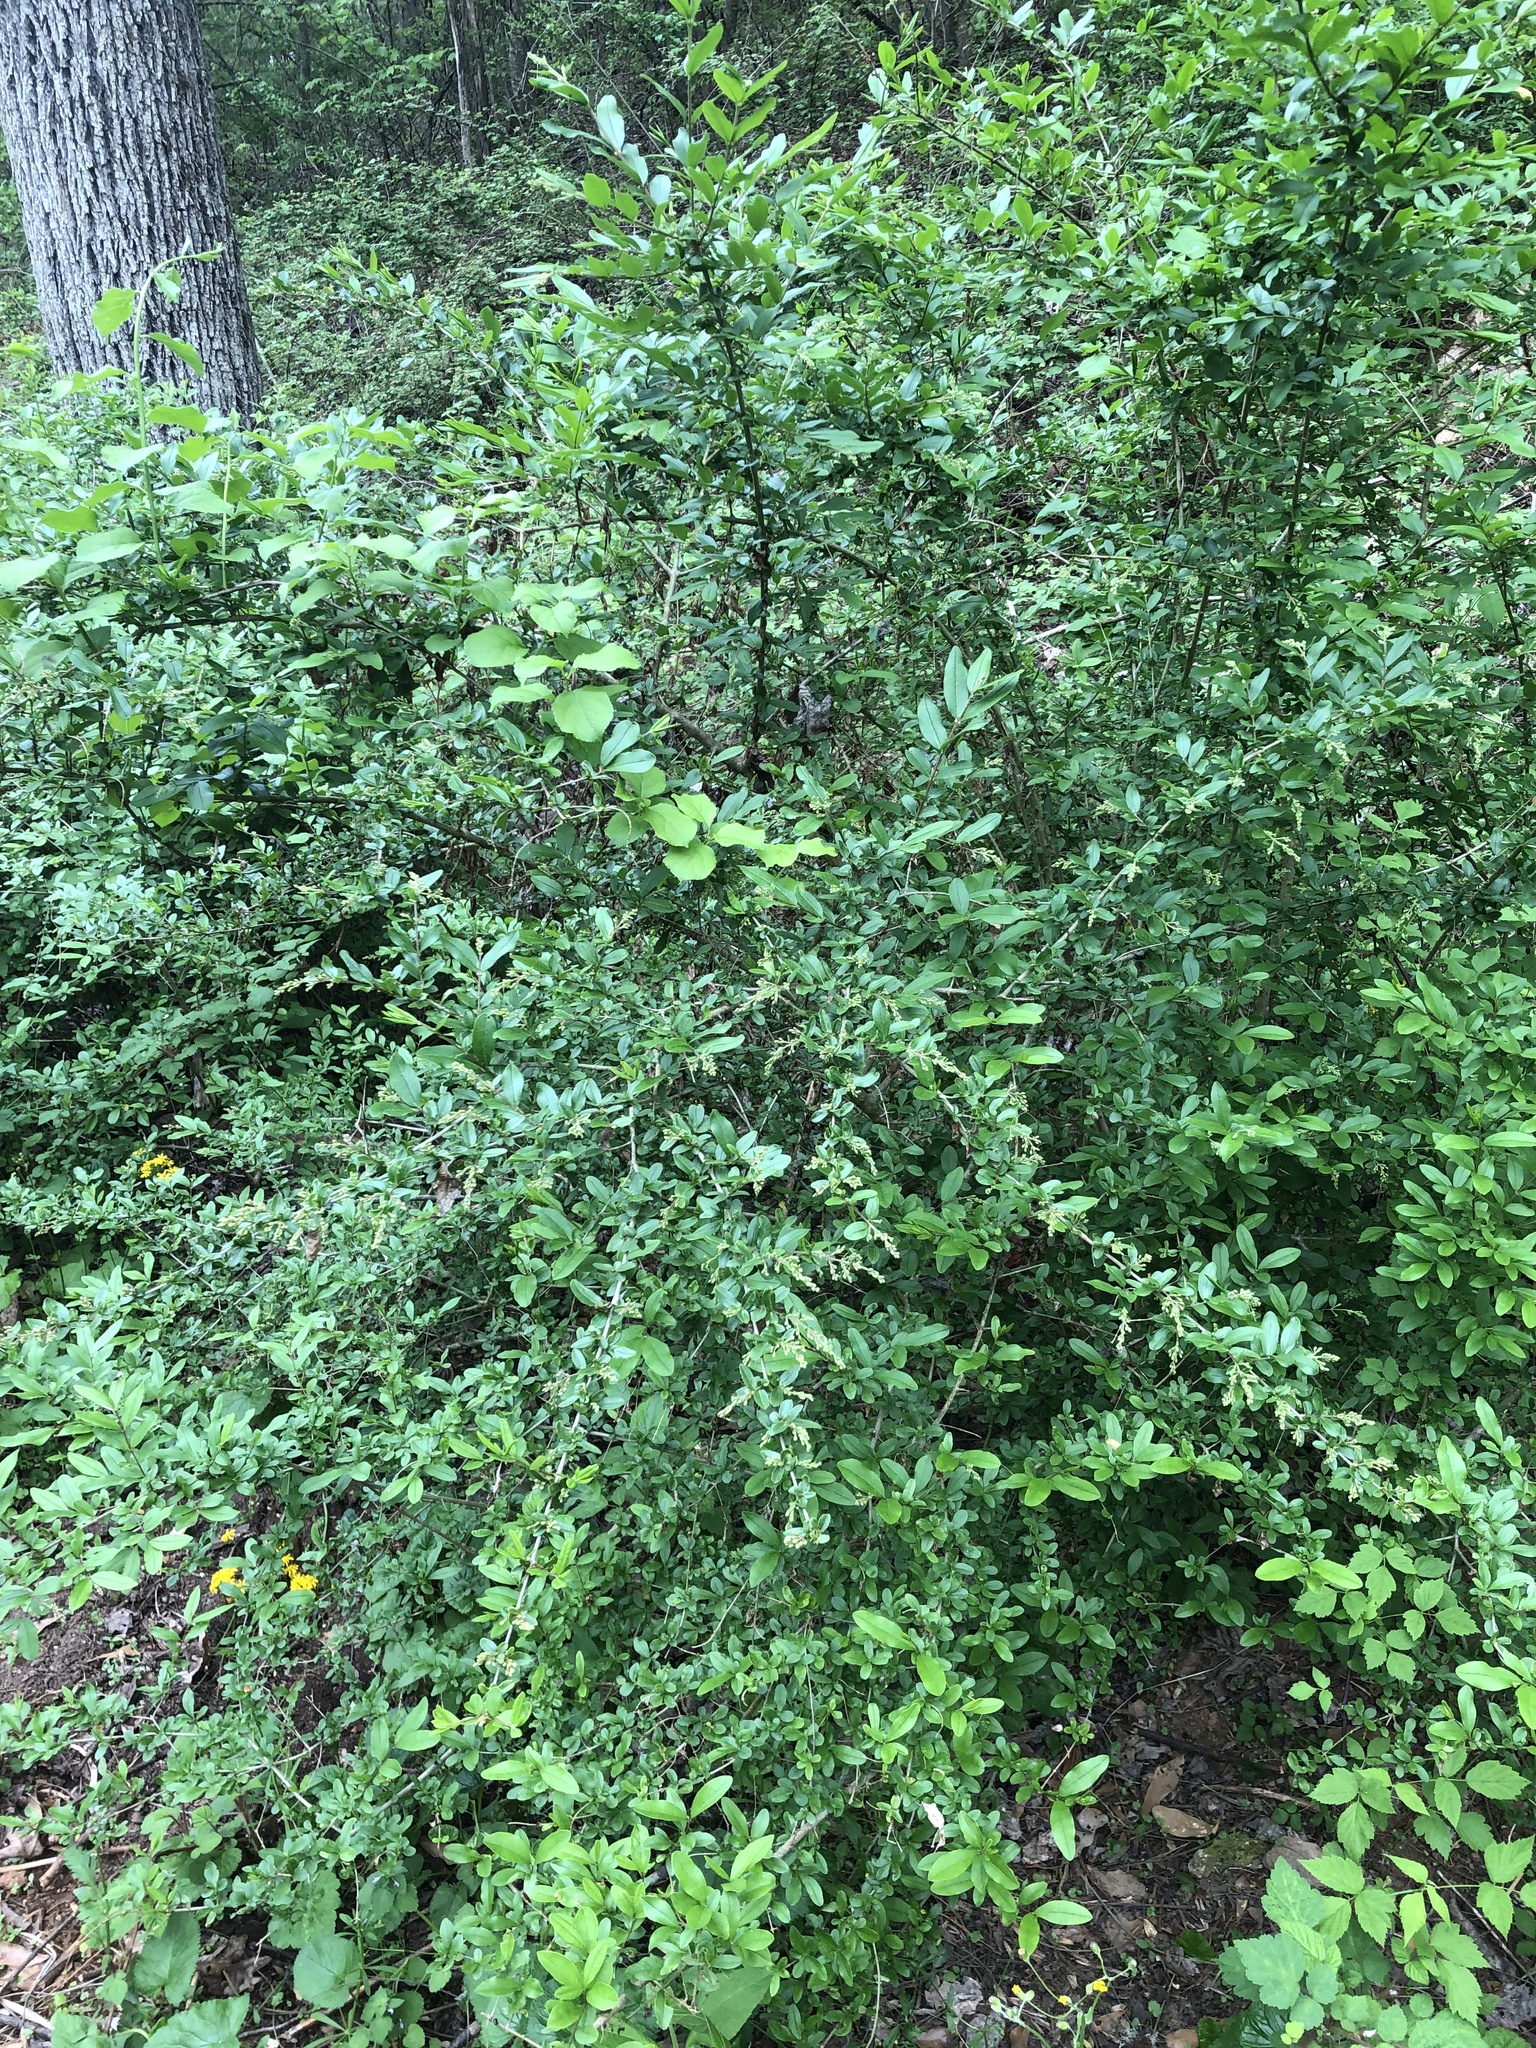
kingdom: Plantae
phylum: Tracheophyta
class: Magnoliopsida
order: Lamiales
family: Oleaceae
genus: Ligustrum
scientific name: Ligustrum obtusifolium
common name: Border privet
